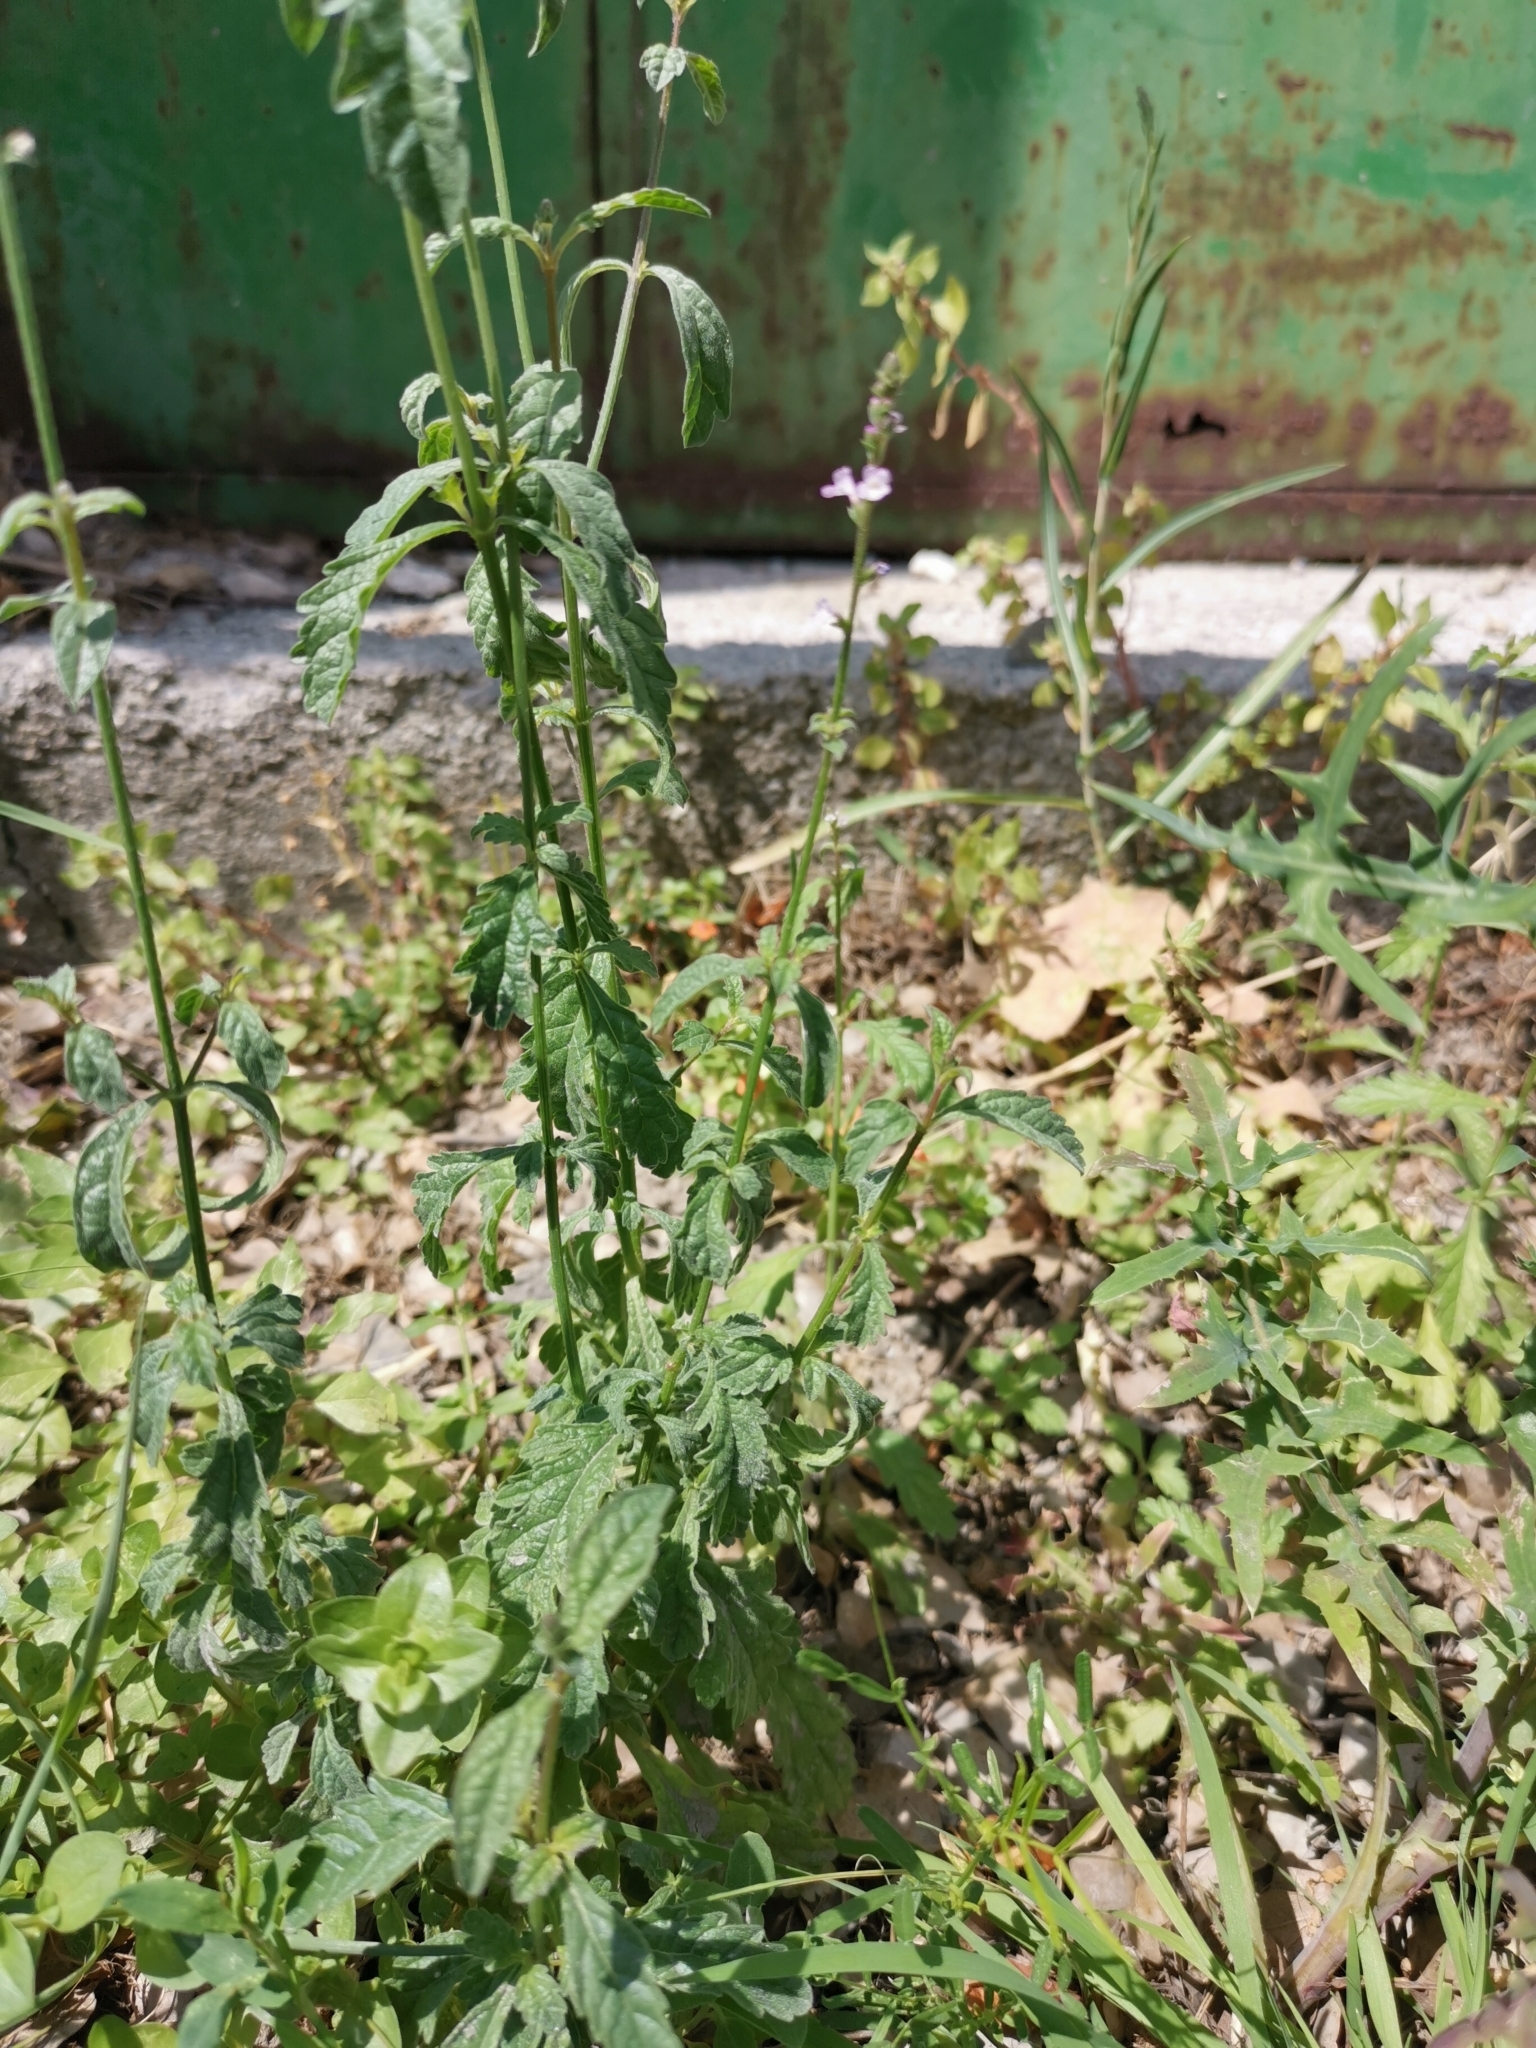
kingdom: Plantae
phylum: Tracheophyta
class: Magnoliopsida
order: Lamiales
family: Verbenaceae
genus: Verbena
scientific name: Verbena officinalis
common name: Vervain
